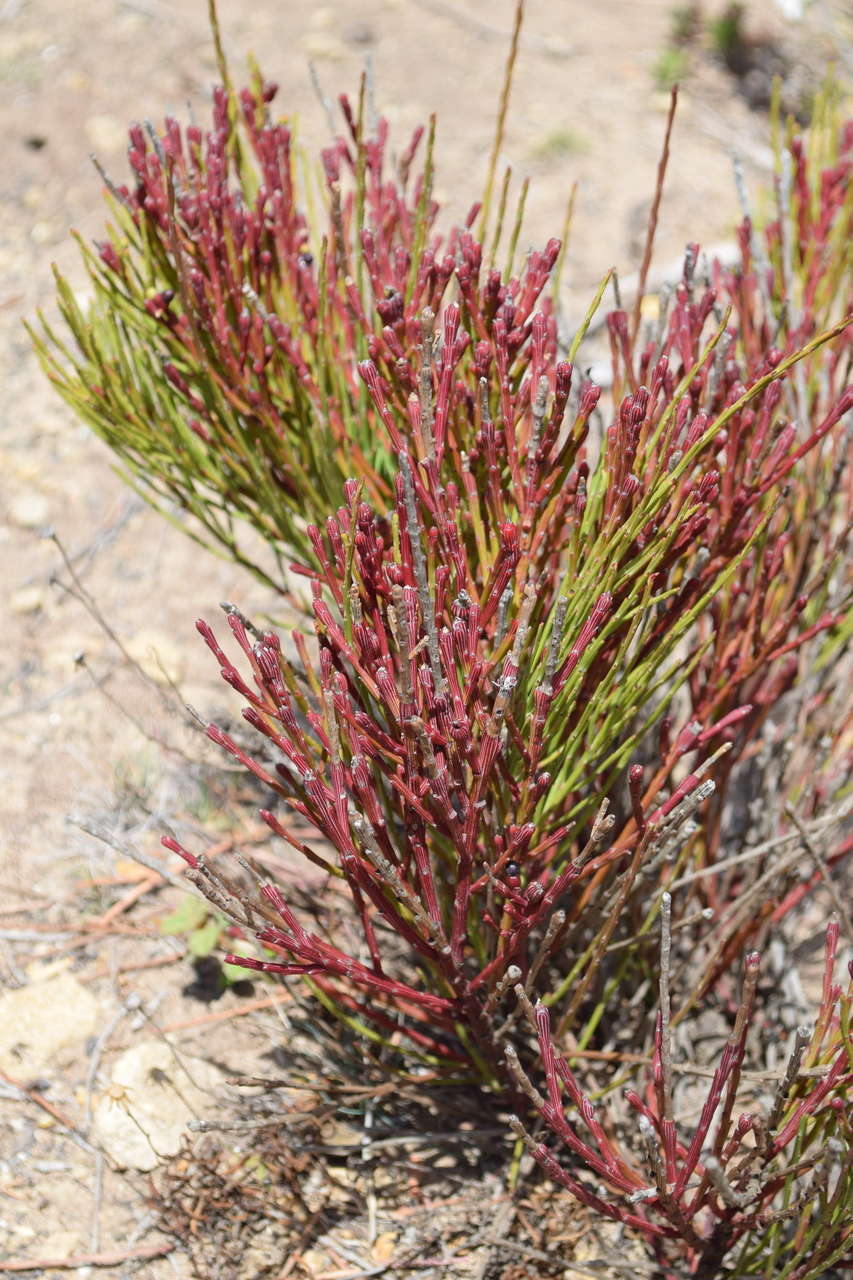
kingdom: Plantae
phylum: Tracheophyta
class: Magnoliopsida
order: Santalales
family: Santalaceae
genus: Exocarpos
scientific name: Exocarpos syrticola
